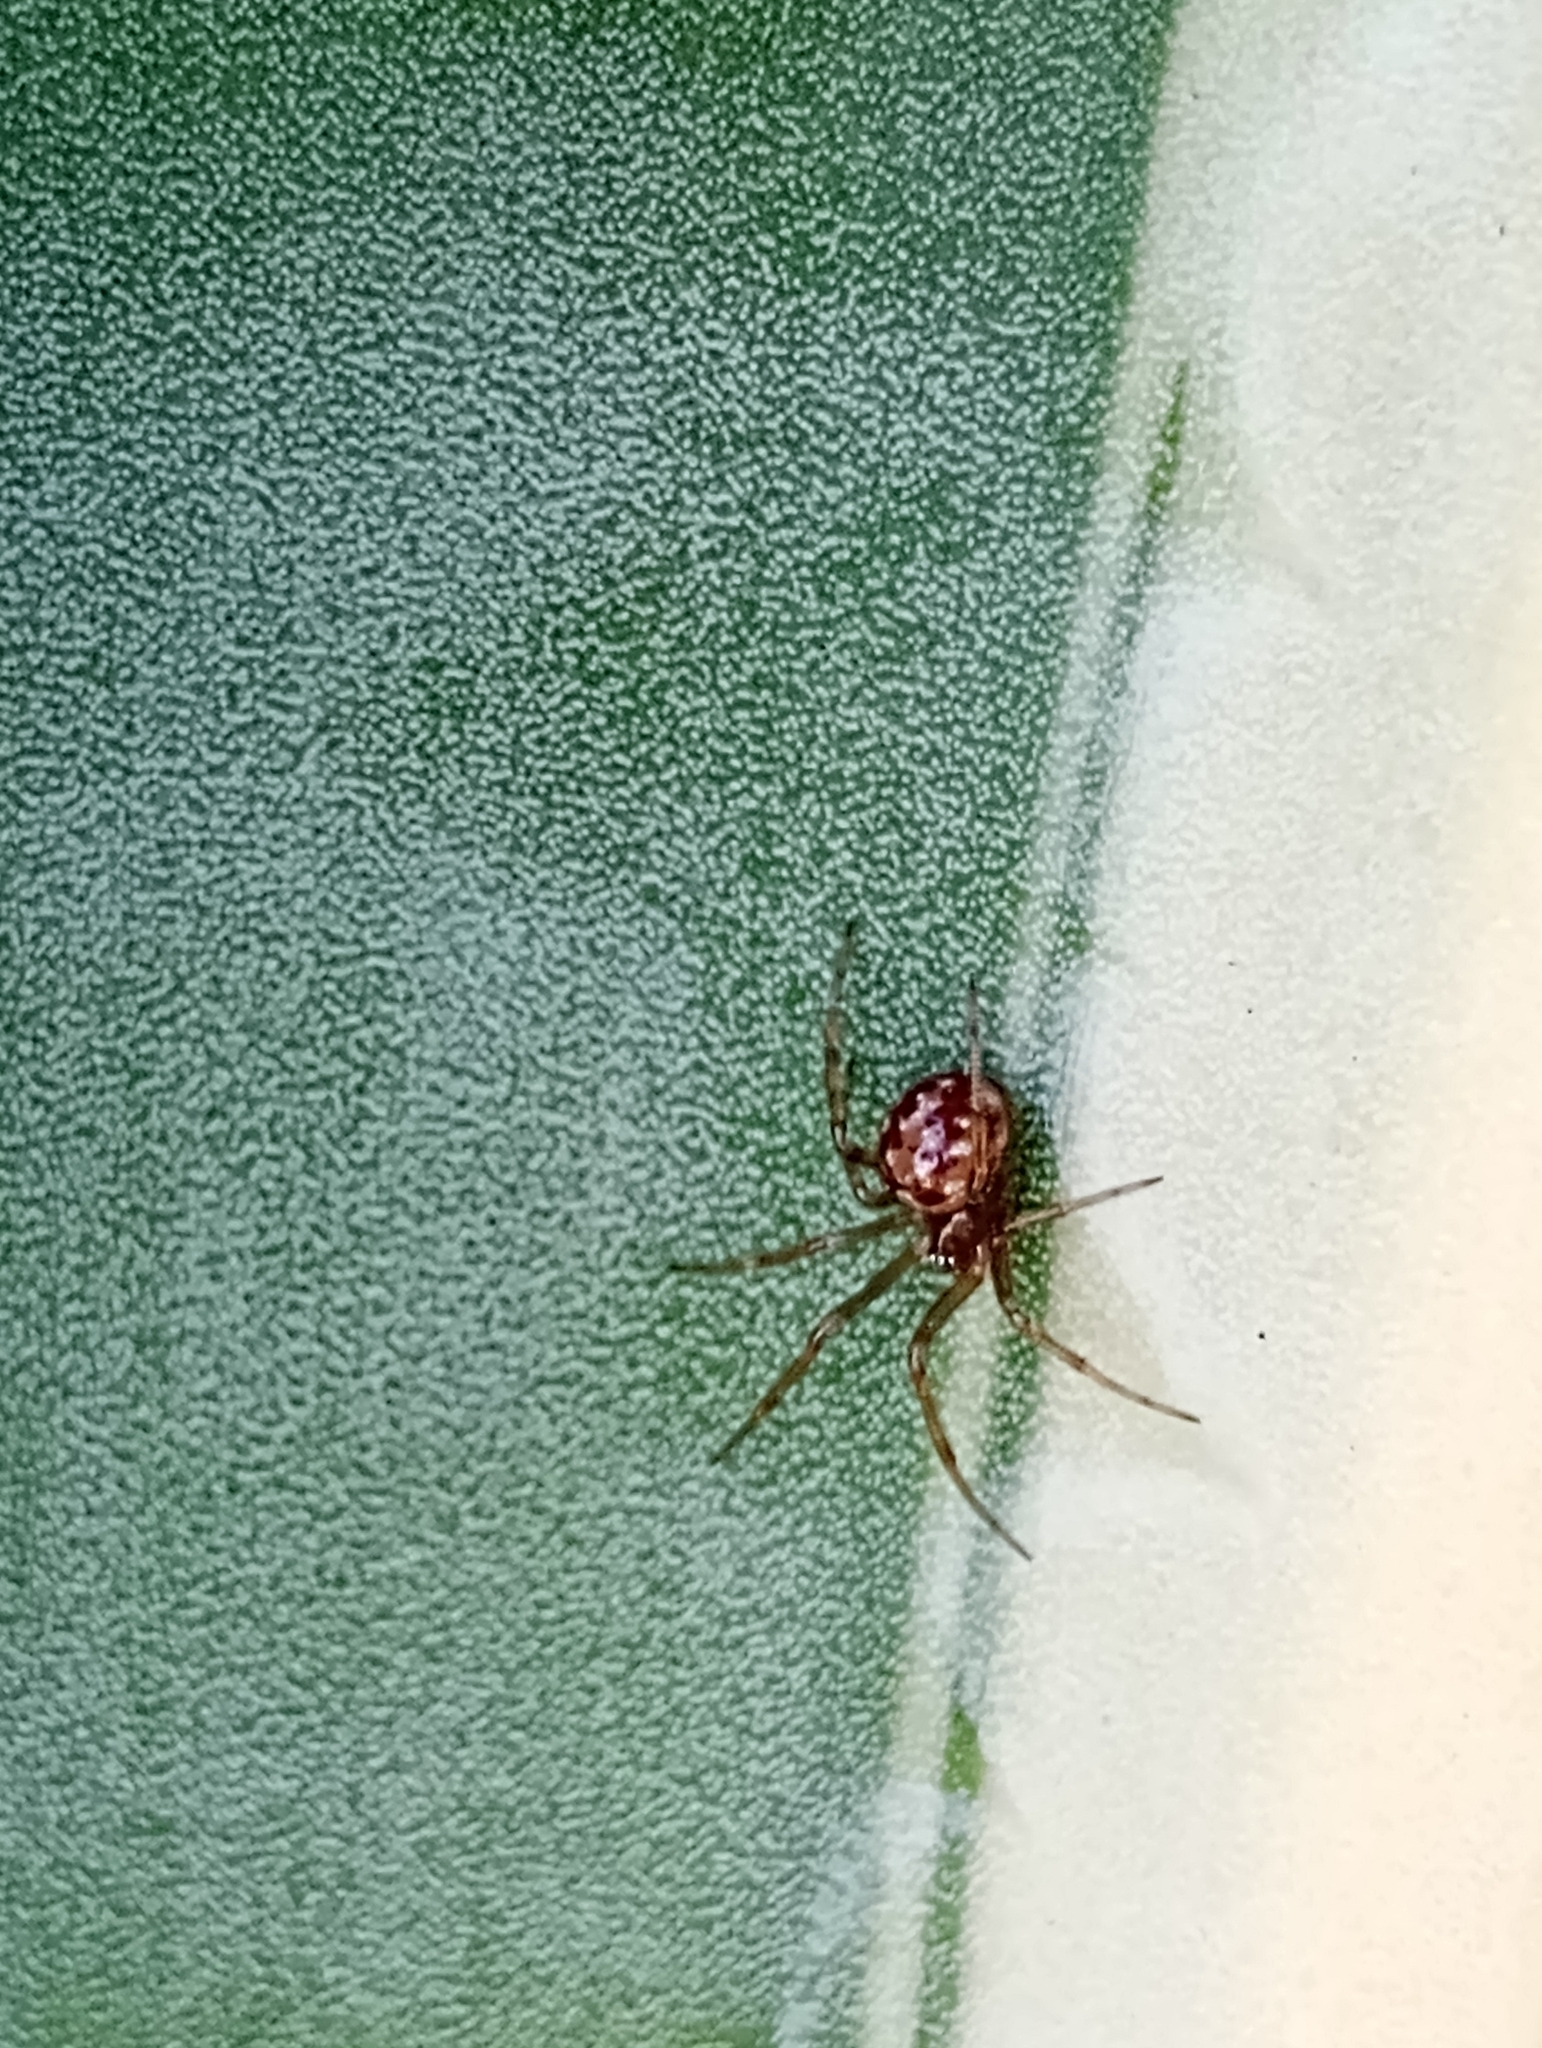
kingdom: Animalia
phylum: Arthropoda
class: Arachnida
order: Araneae
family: Theridiidae
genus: Steatoda
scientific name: Steatoda triangulosa
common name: Triangulate bud spider
